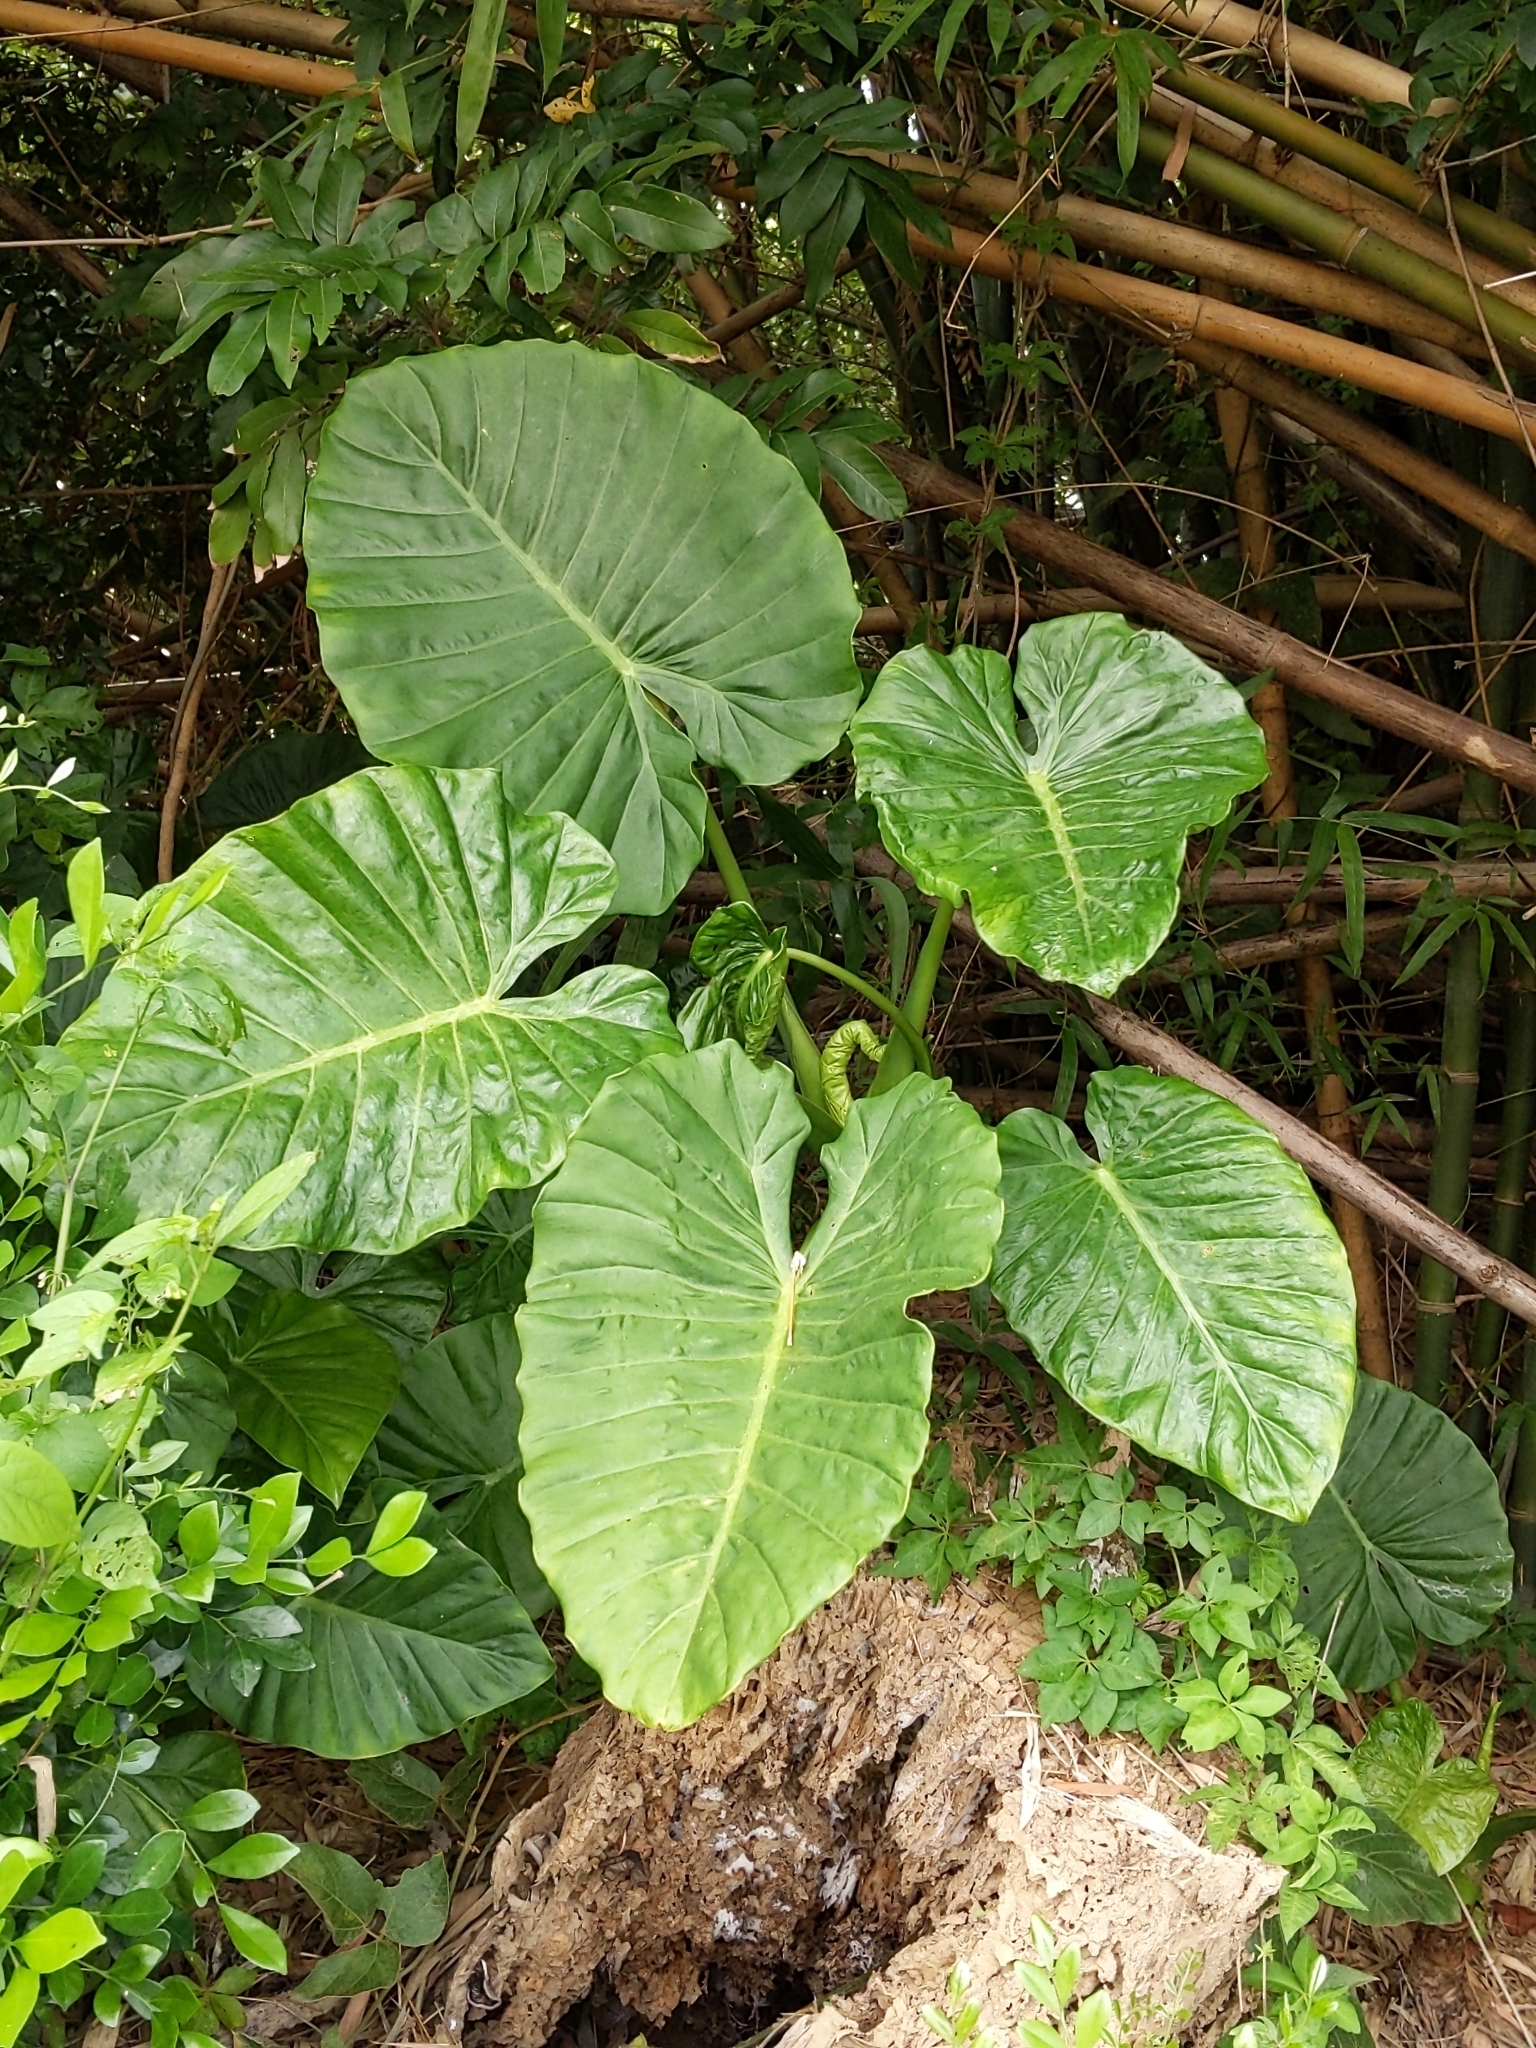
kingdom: Plantae
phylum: Tracheophyta
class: Liliopsida
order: Alismatales
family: Araceae
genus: Alocasia
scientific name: Alocasia odora
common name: Asian taro
